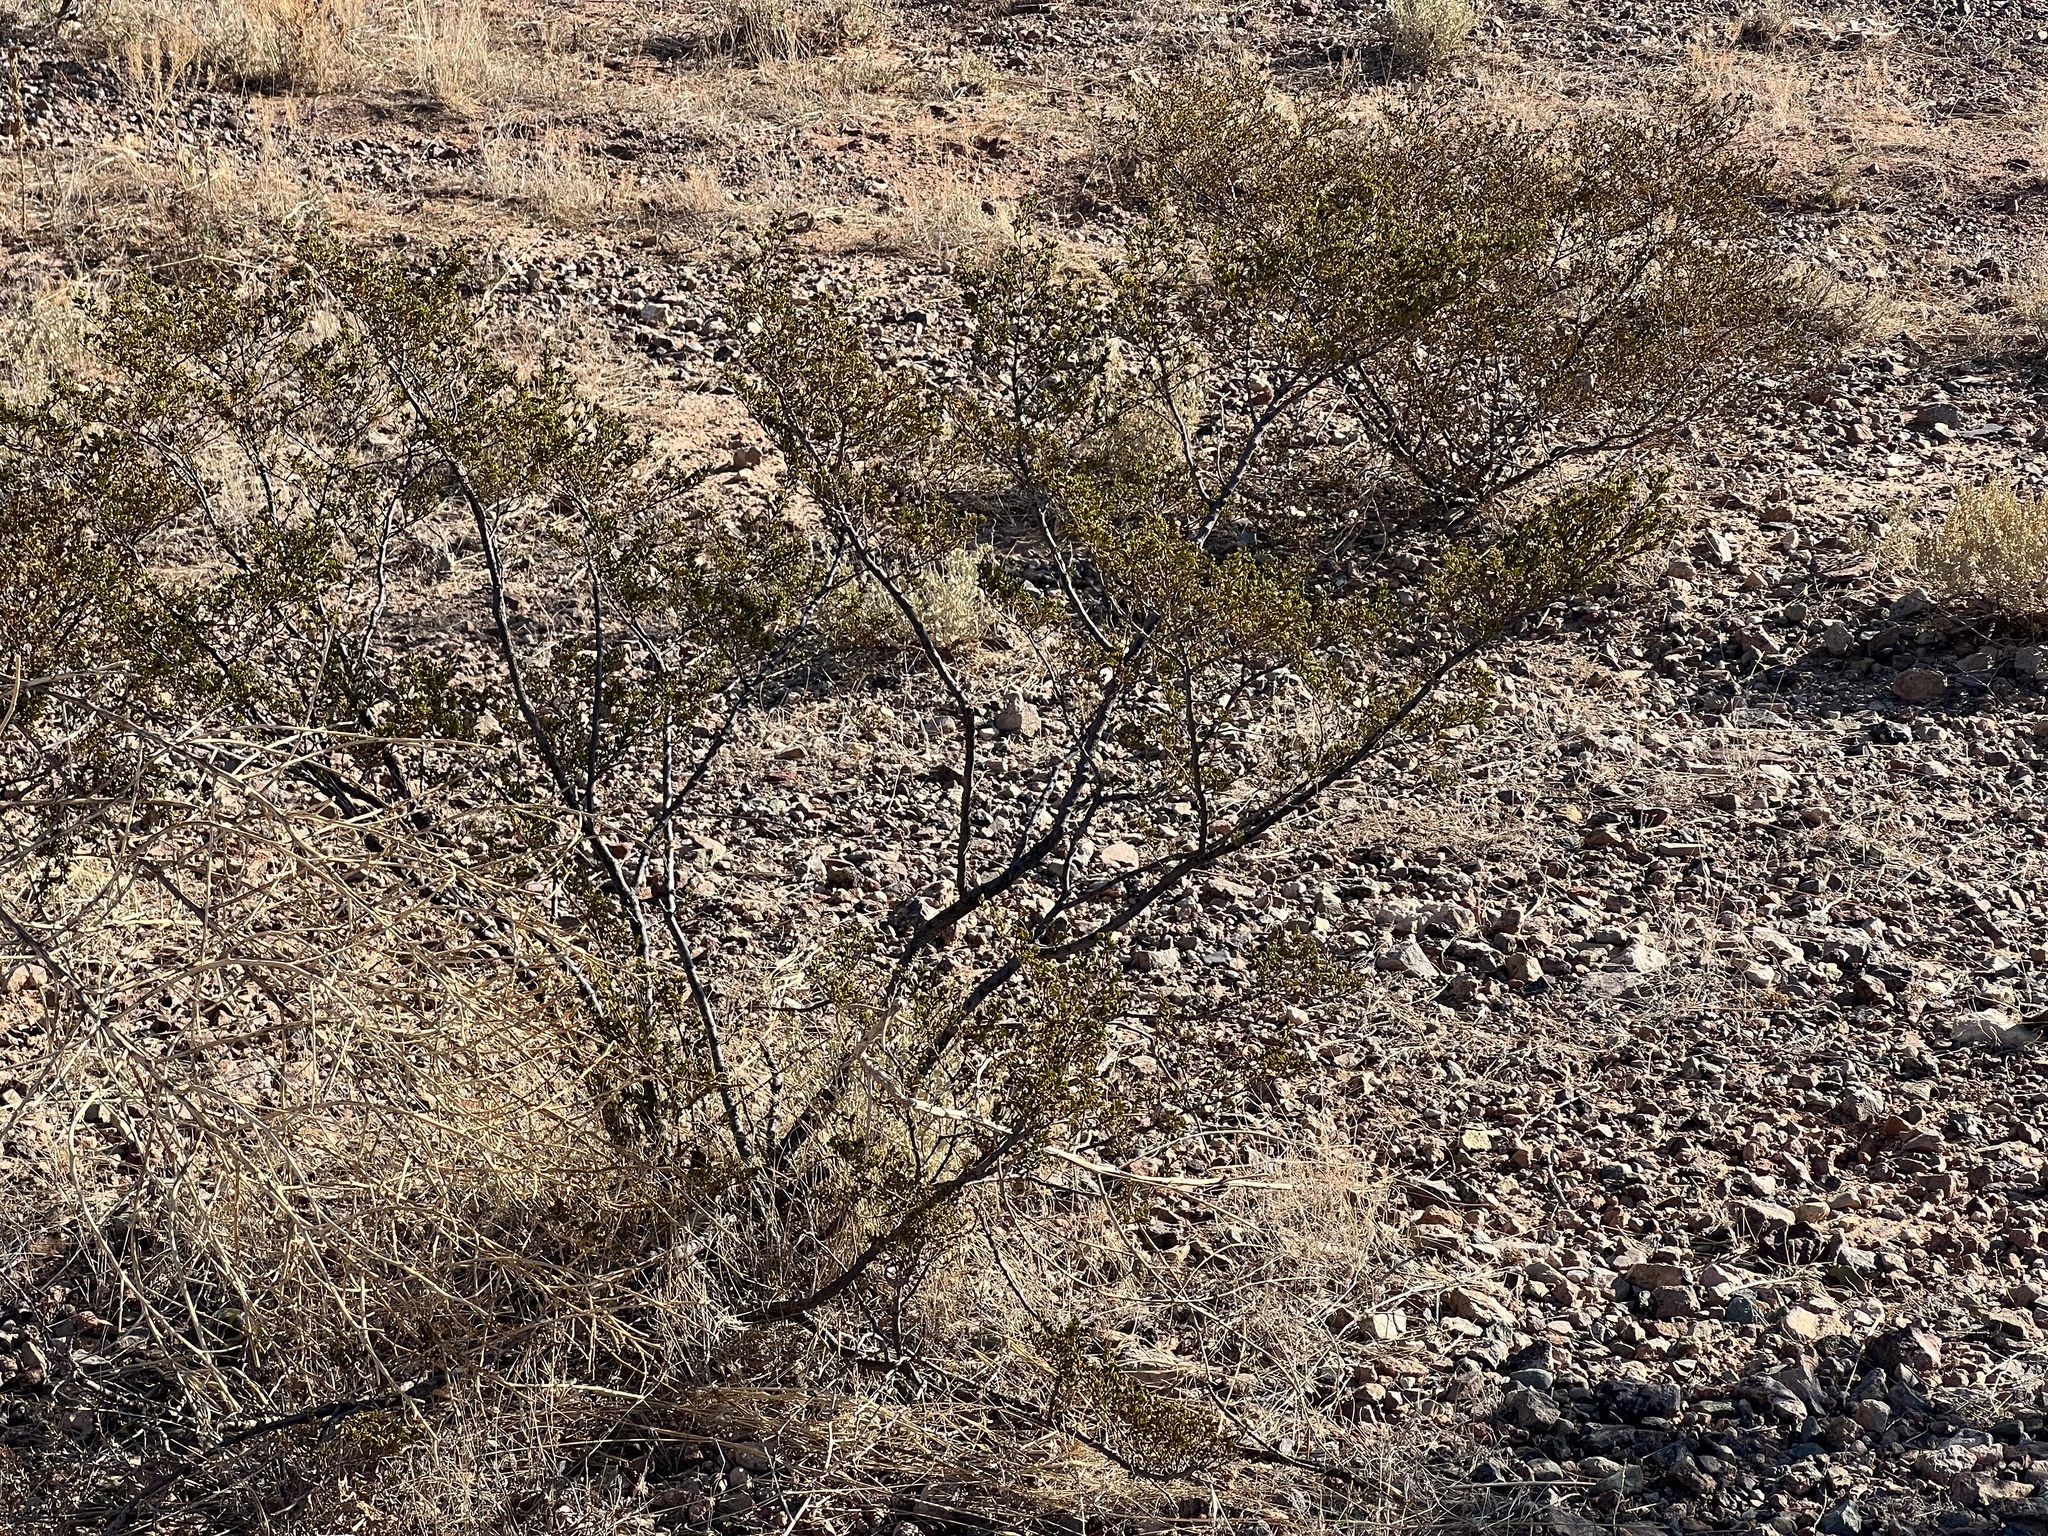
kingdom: Plantae
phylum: Tracheophyta
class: Magnoliopsida
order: Zygophyllales
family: Zygophyllaceae
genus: Larrea
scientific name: Larrea tridentata
